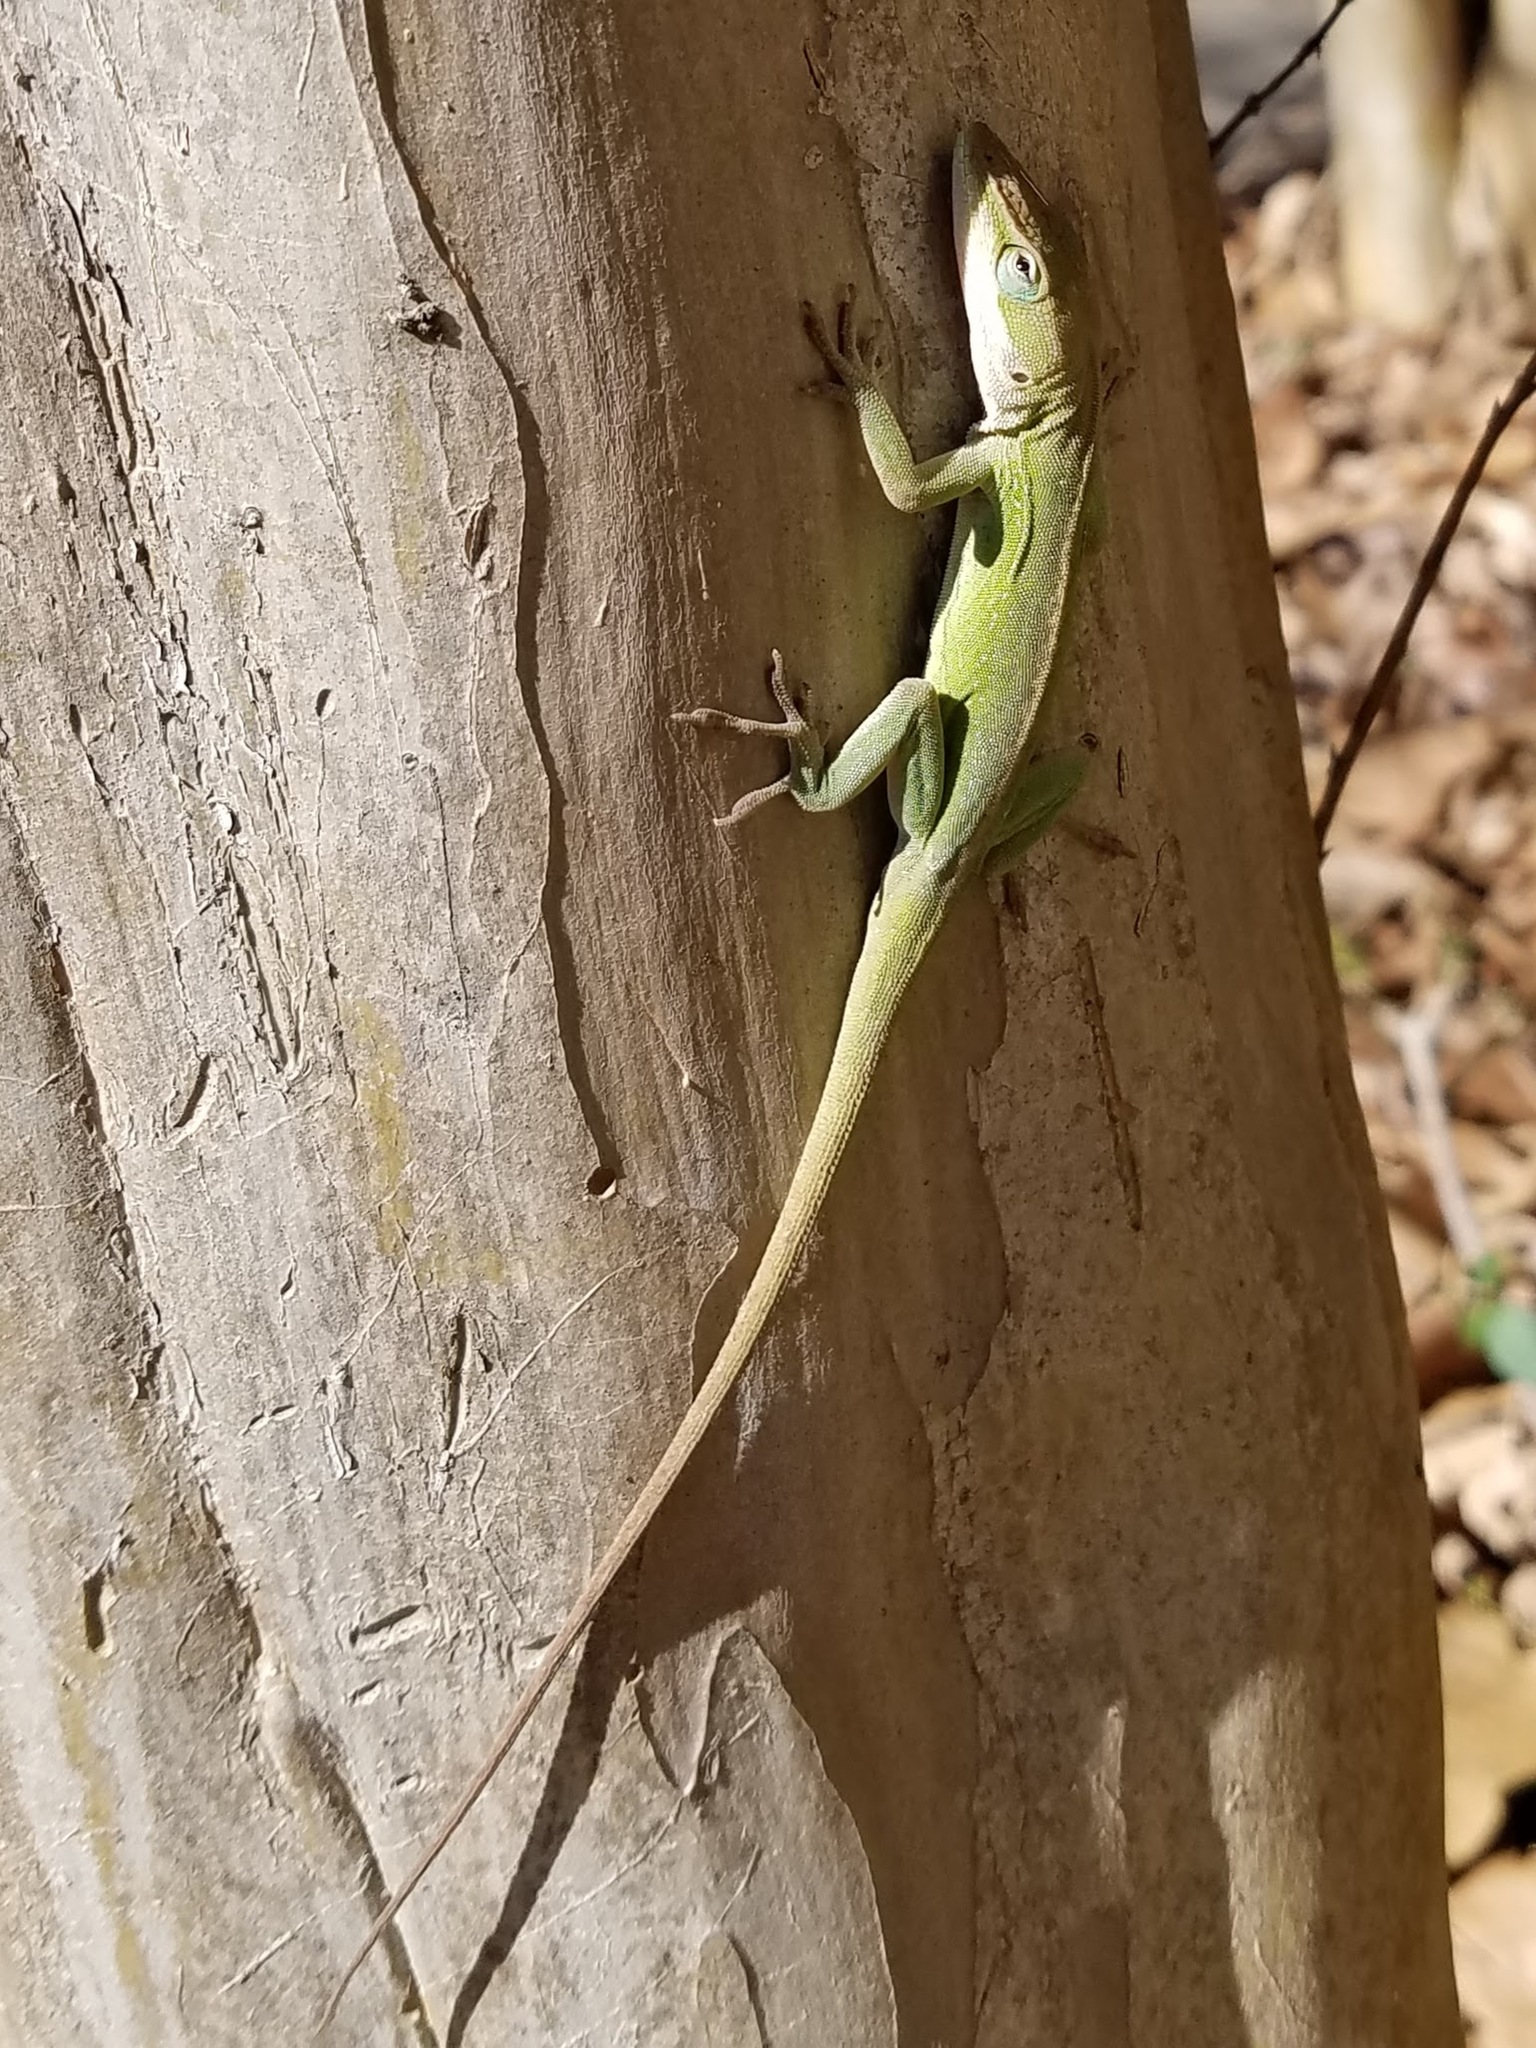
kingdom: Animalia
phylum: Chordata
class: Squamata
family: Dactyloidae
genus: Anolis
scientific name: Anolis carolinensis
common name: Green anole
